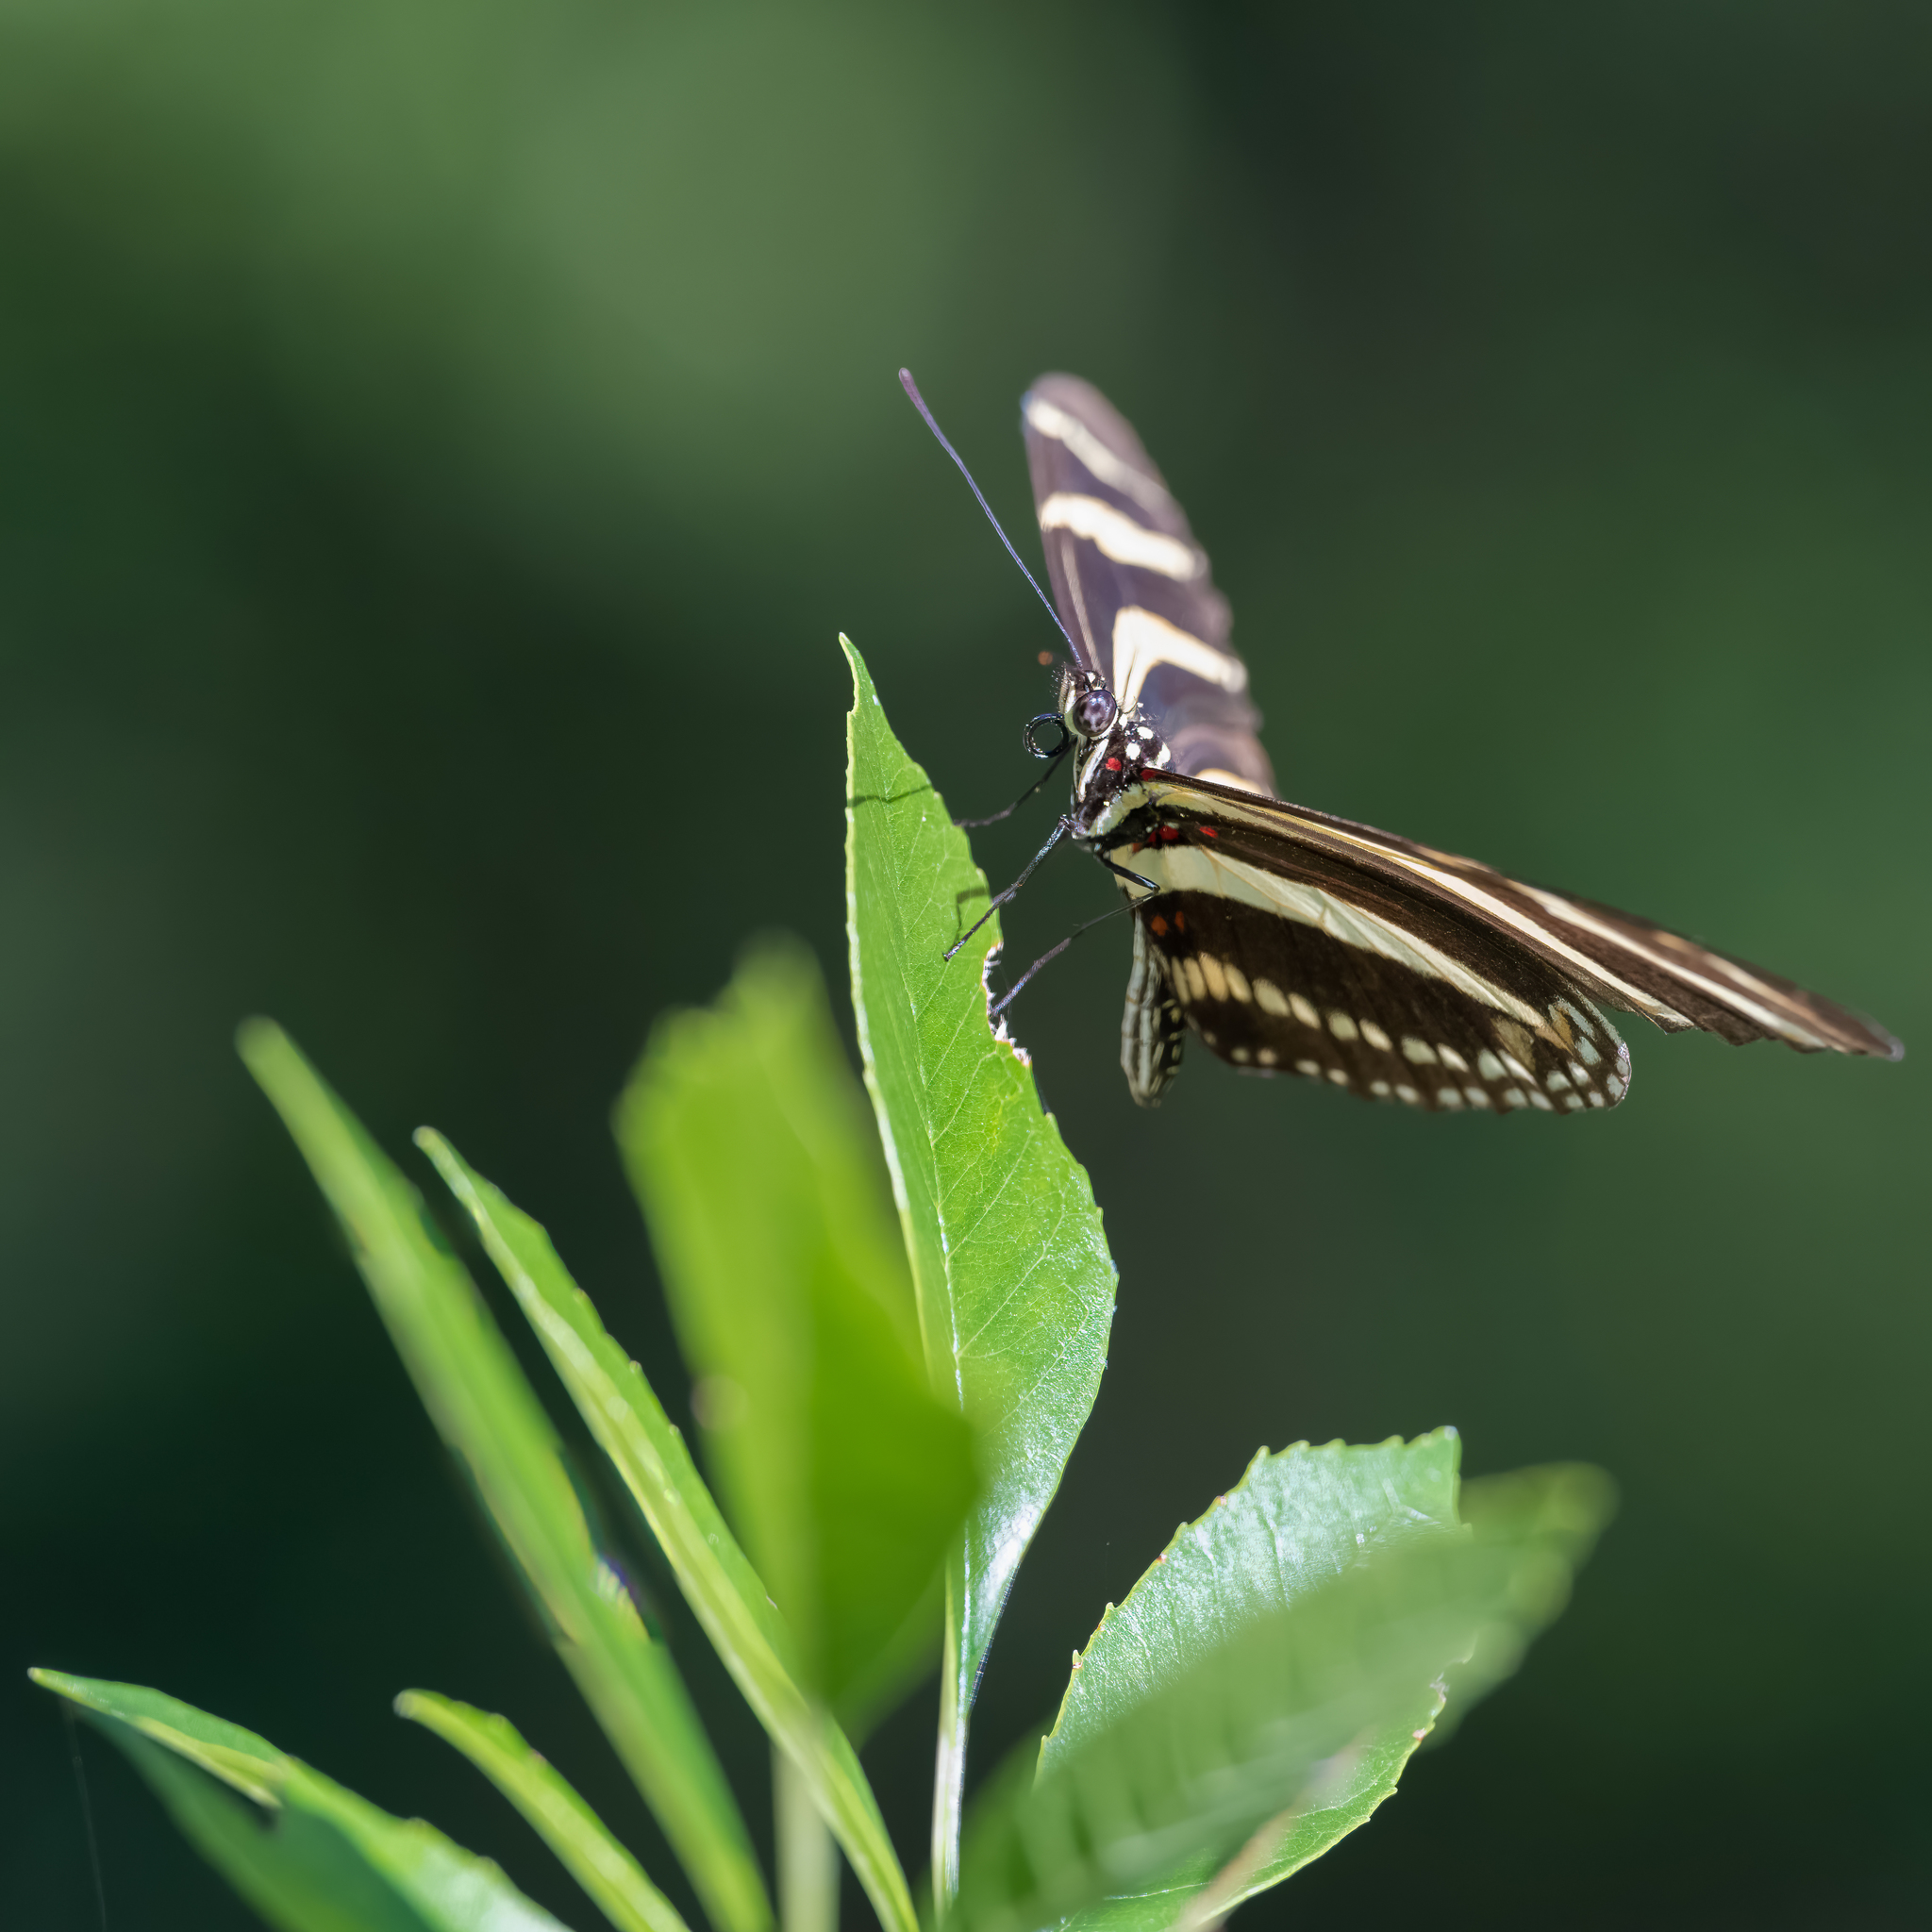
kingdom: Animalia
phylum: Arthropoda
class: Insecta
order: Lepidoptera
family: Nymphalidae
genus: Heliconius
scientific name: Heliconius charithonia
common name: Zebra long wing
